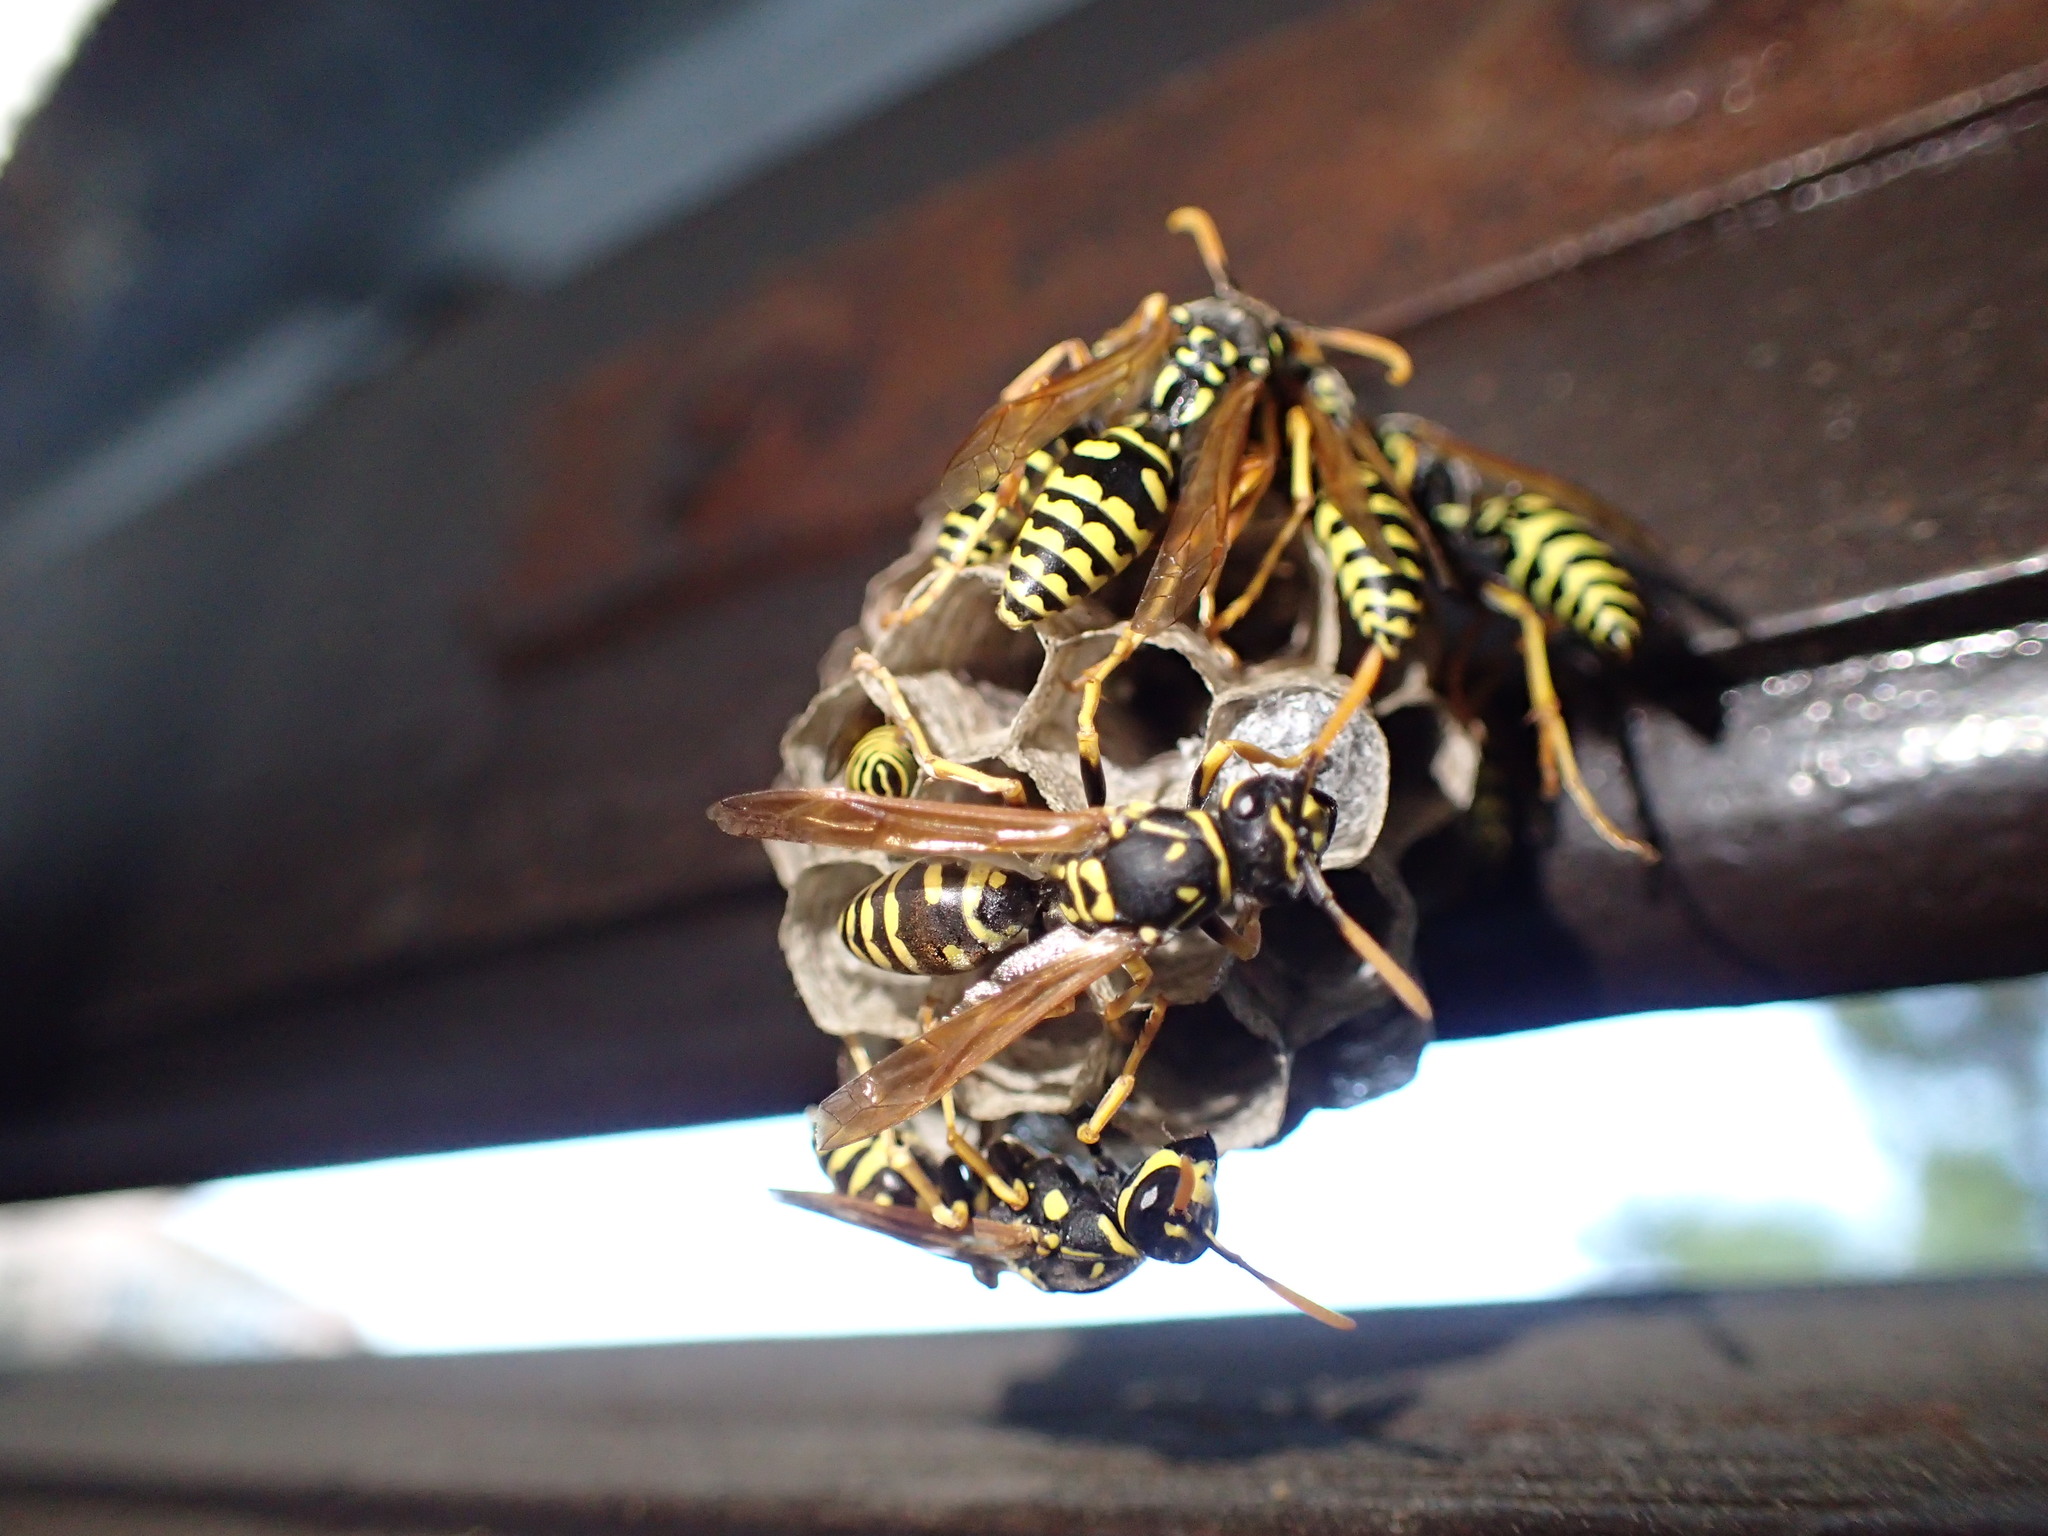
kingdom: Animalia
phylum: Arthropoda
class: Insecta
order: Hymenoptera
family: Eumenidae
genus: Polistes
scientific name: Polistes dominula
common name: Paper wasp
